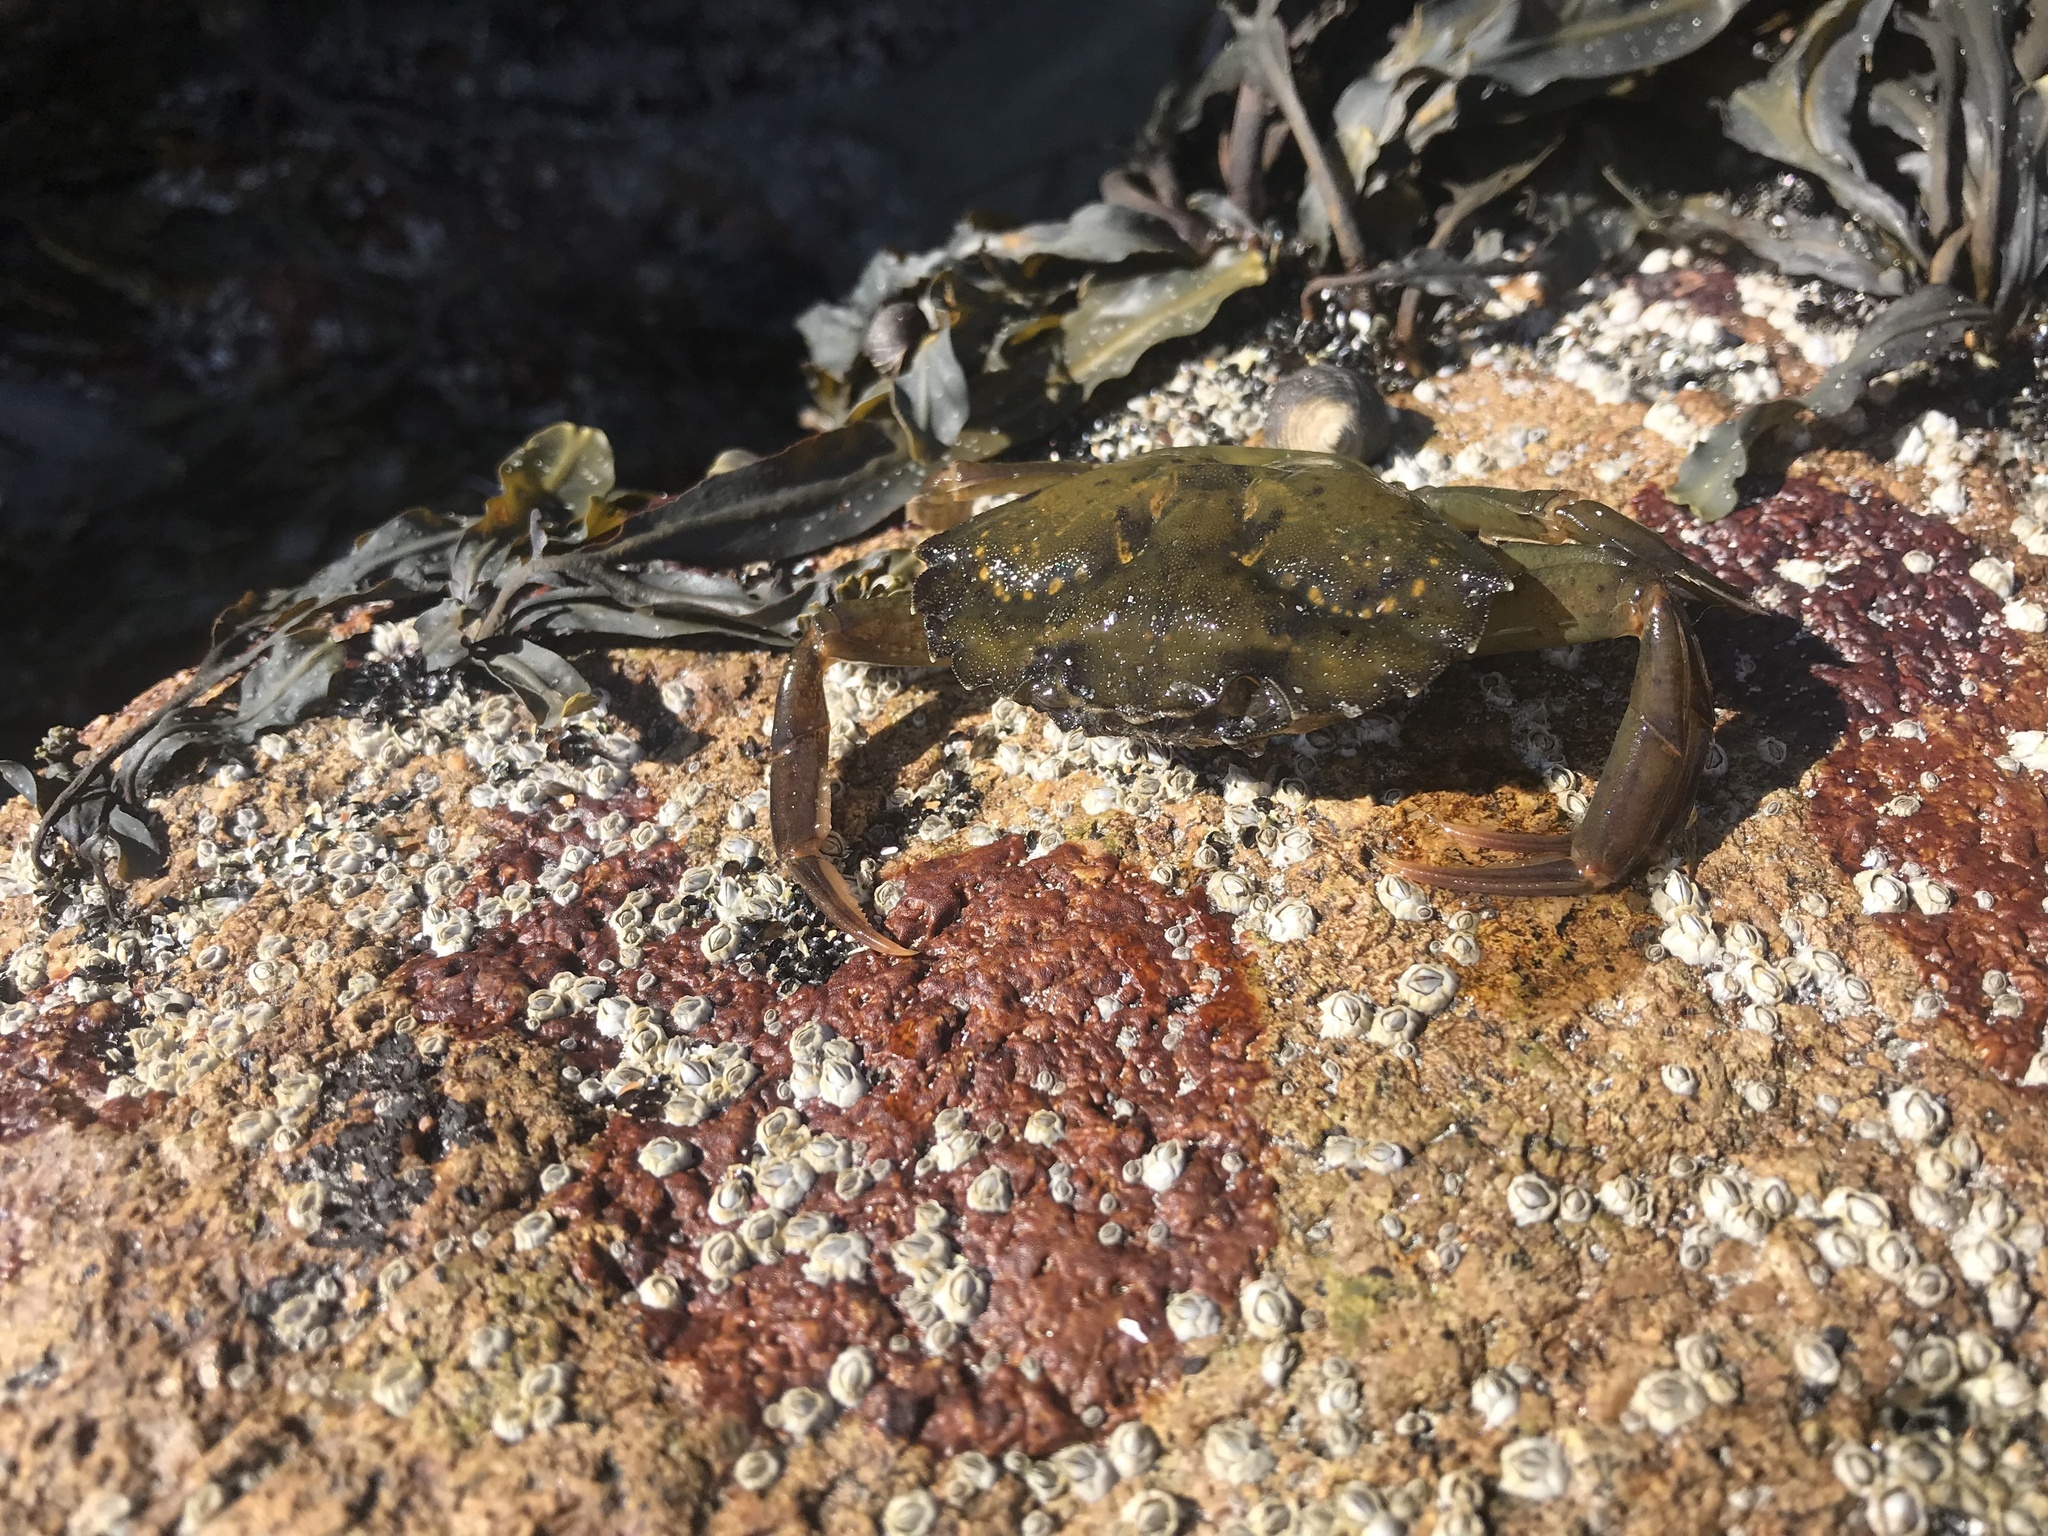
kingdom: Animalia
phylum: Arthropoda
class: Malacostraca
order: Decapoda
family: Carcinidae
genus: Carcinus
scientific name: Carcinus maenas
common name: European green crab
